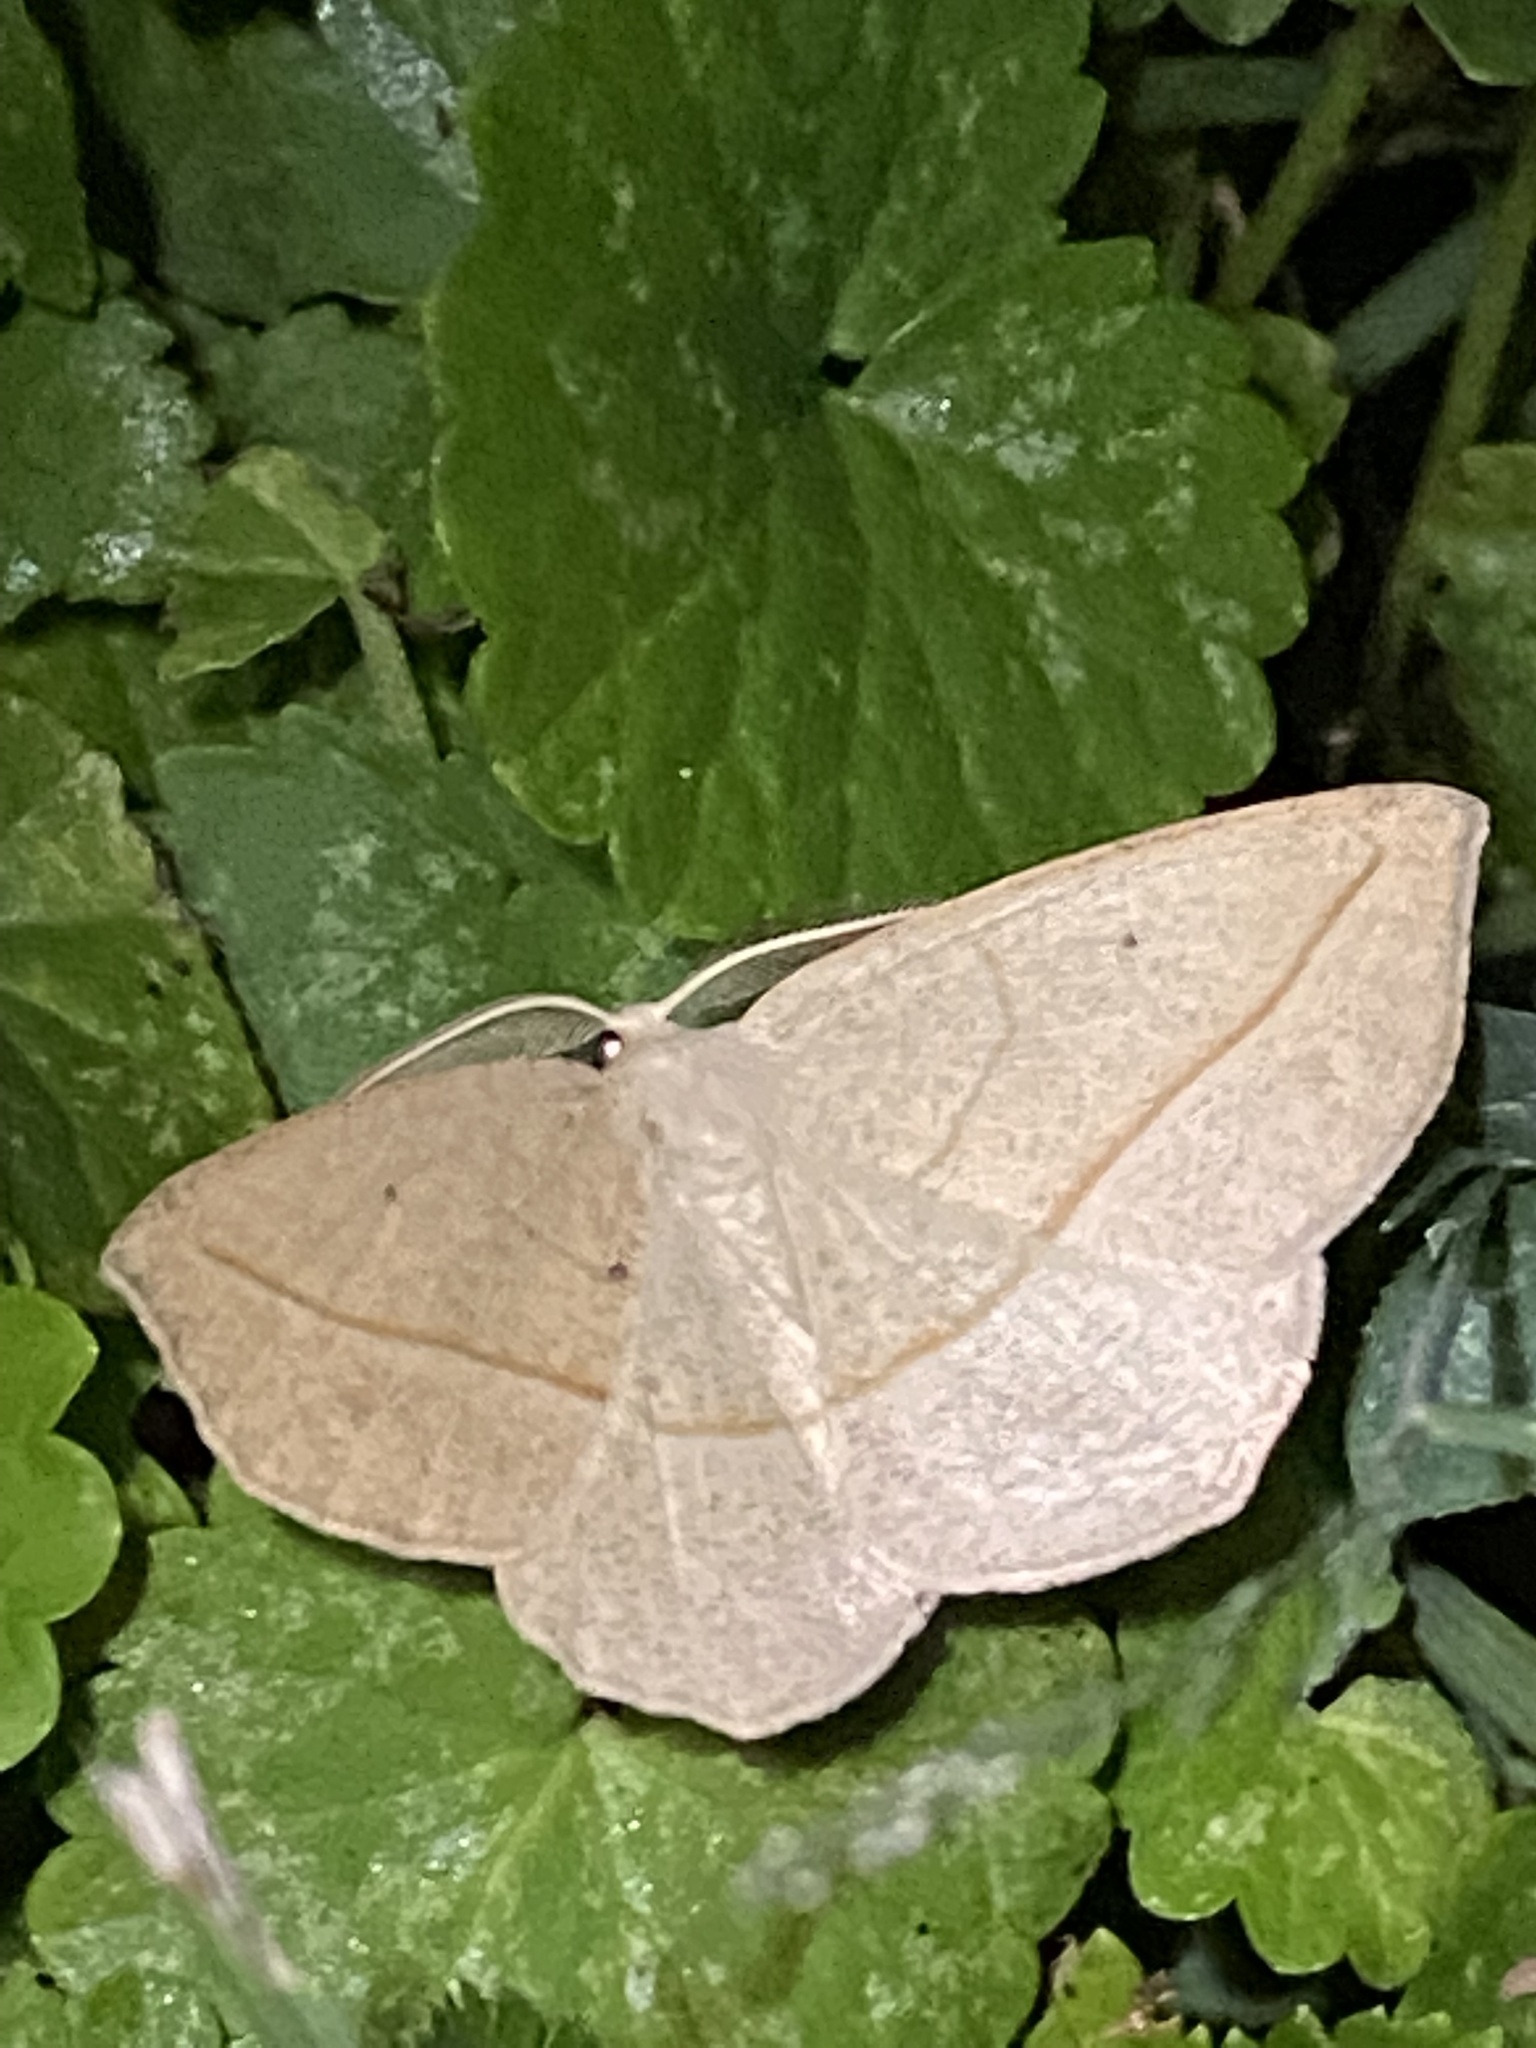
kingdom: Animalia
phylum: Arthropoda
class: Insecta
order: Lepidoptera
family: Geometridae
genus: Eusarca
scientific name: Eusarca confusaria
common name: Confused eusarca
